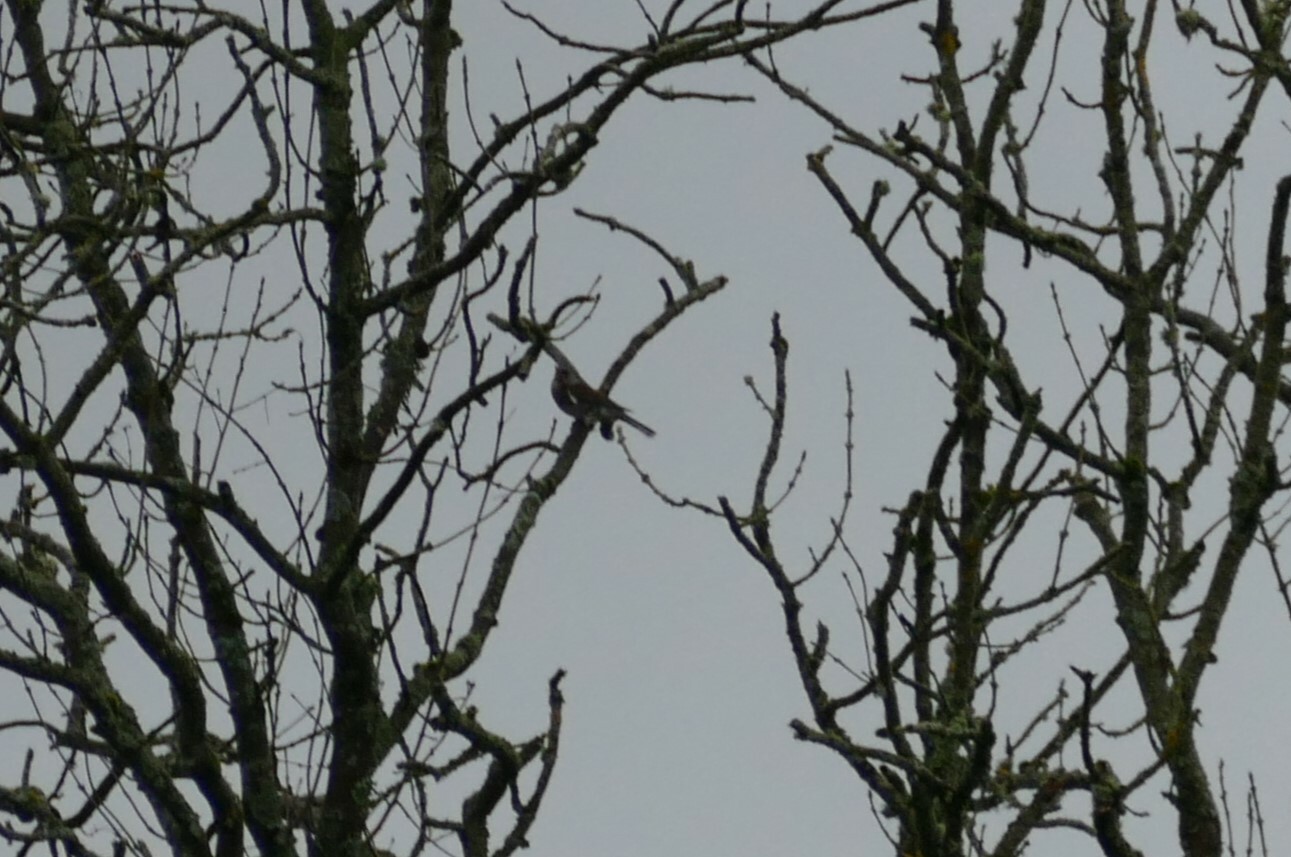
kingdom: Animalia
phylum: Chordata
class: Aves
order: Passeriformes
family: Turdidae
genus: Turdus
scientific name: Turdus pilaris
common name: Fieldfare
